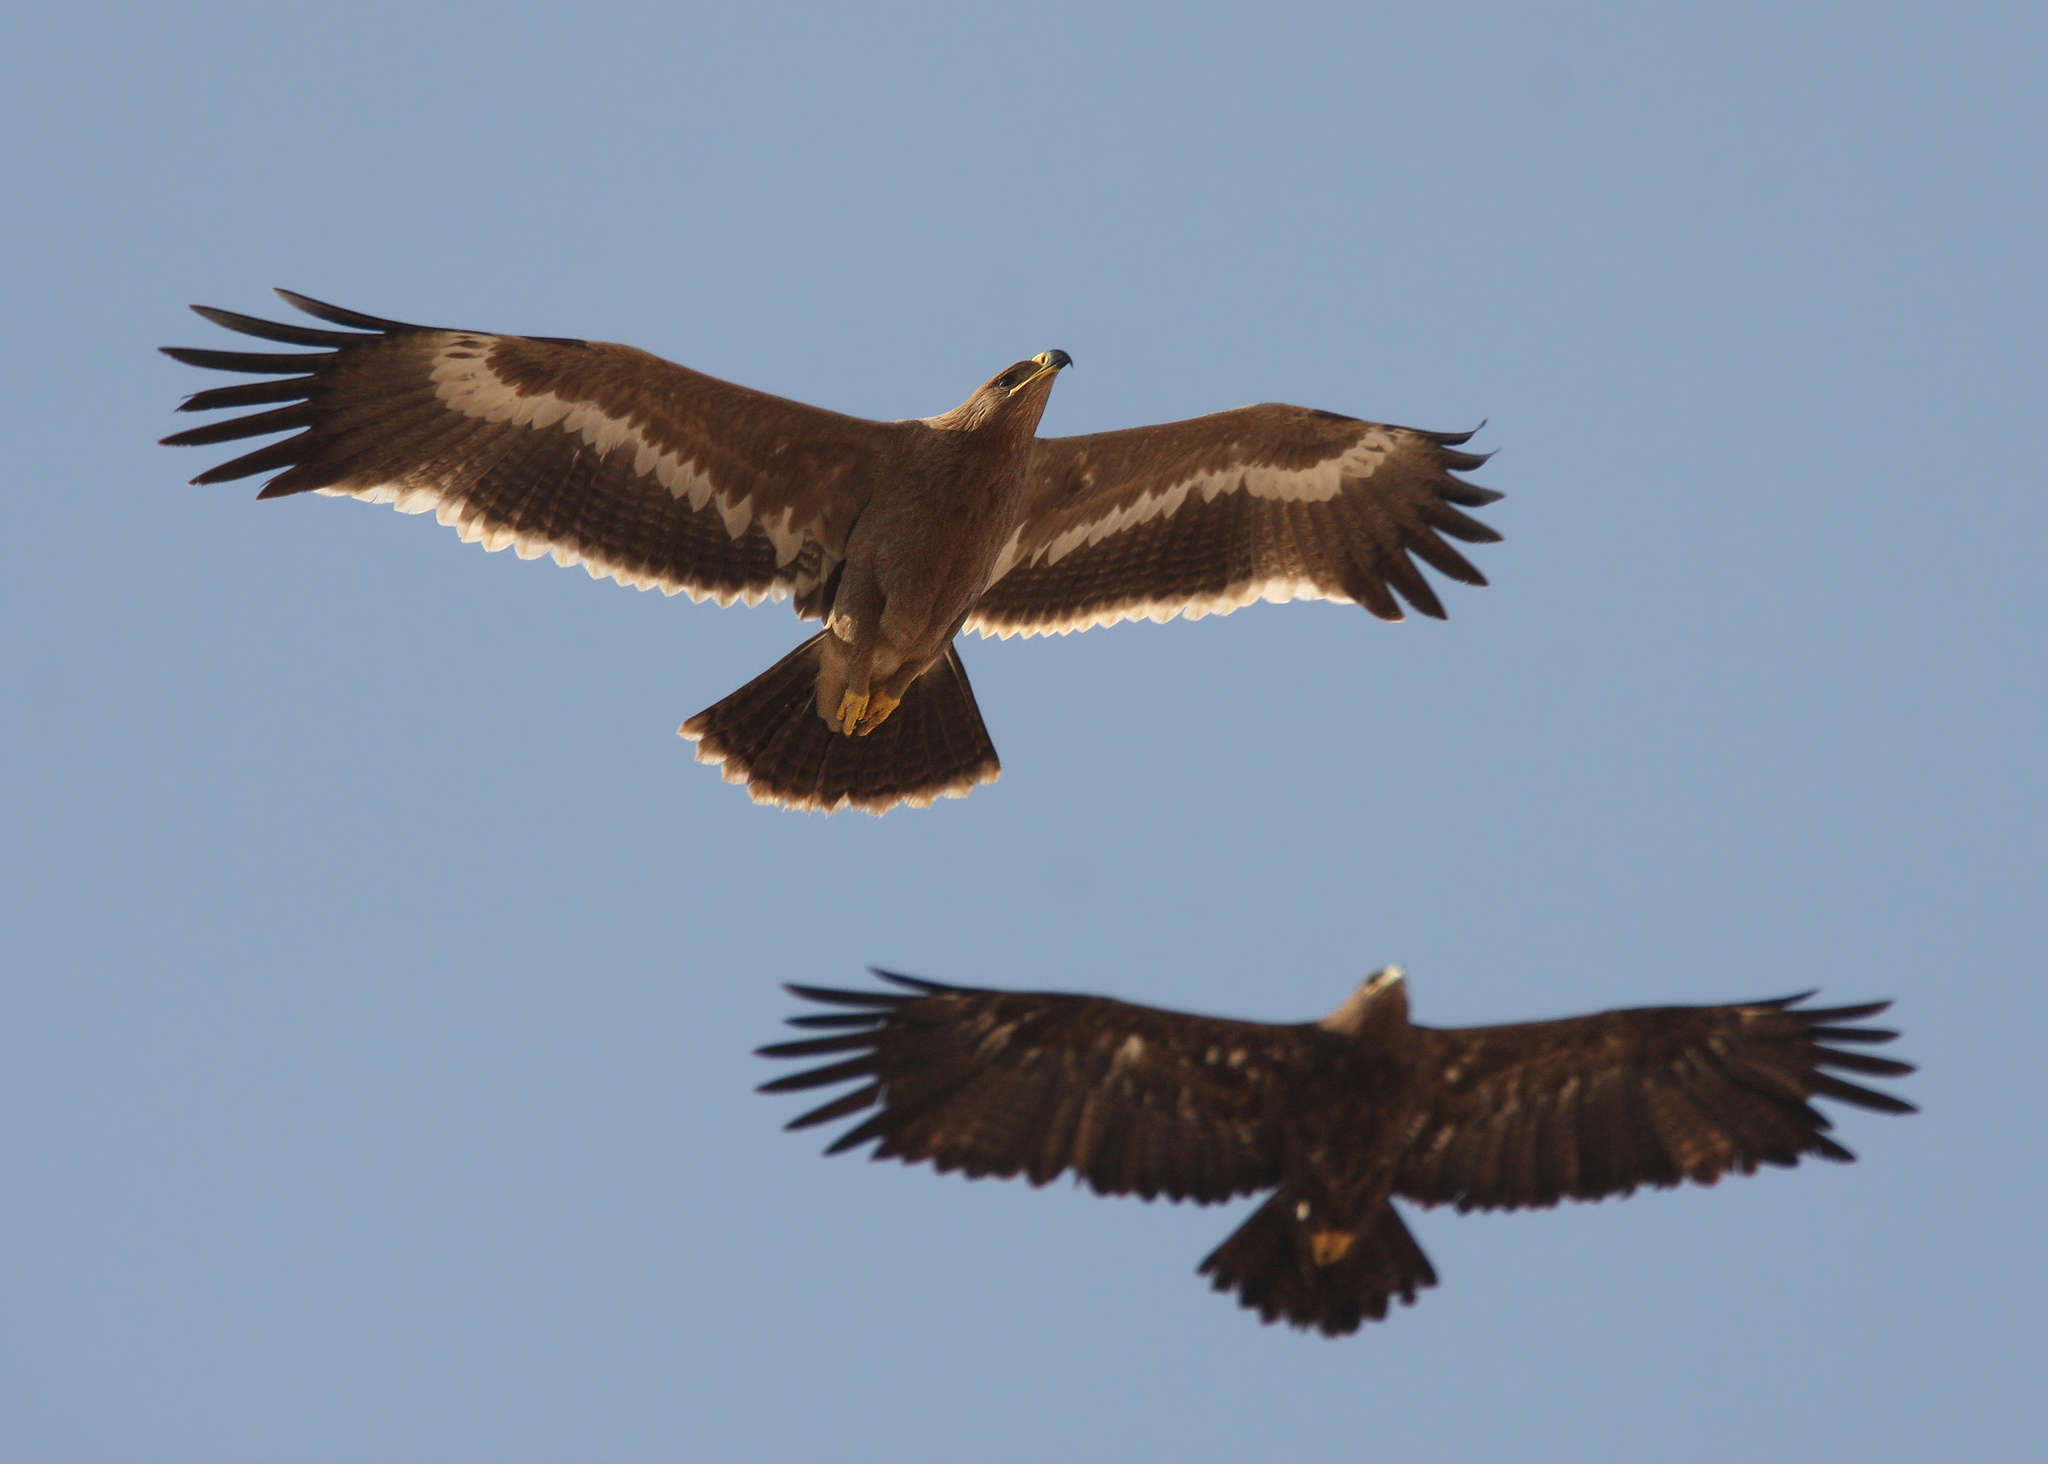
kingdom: Animalia
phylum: Chordata
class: Aves
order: Accipitriformes
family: Accipitridae
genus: Aquila
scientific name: Aquila nipalensis
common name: Steppe eagle
